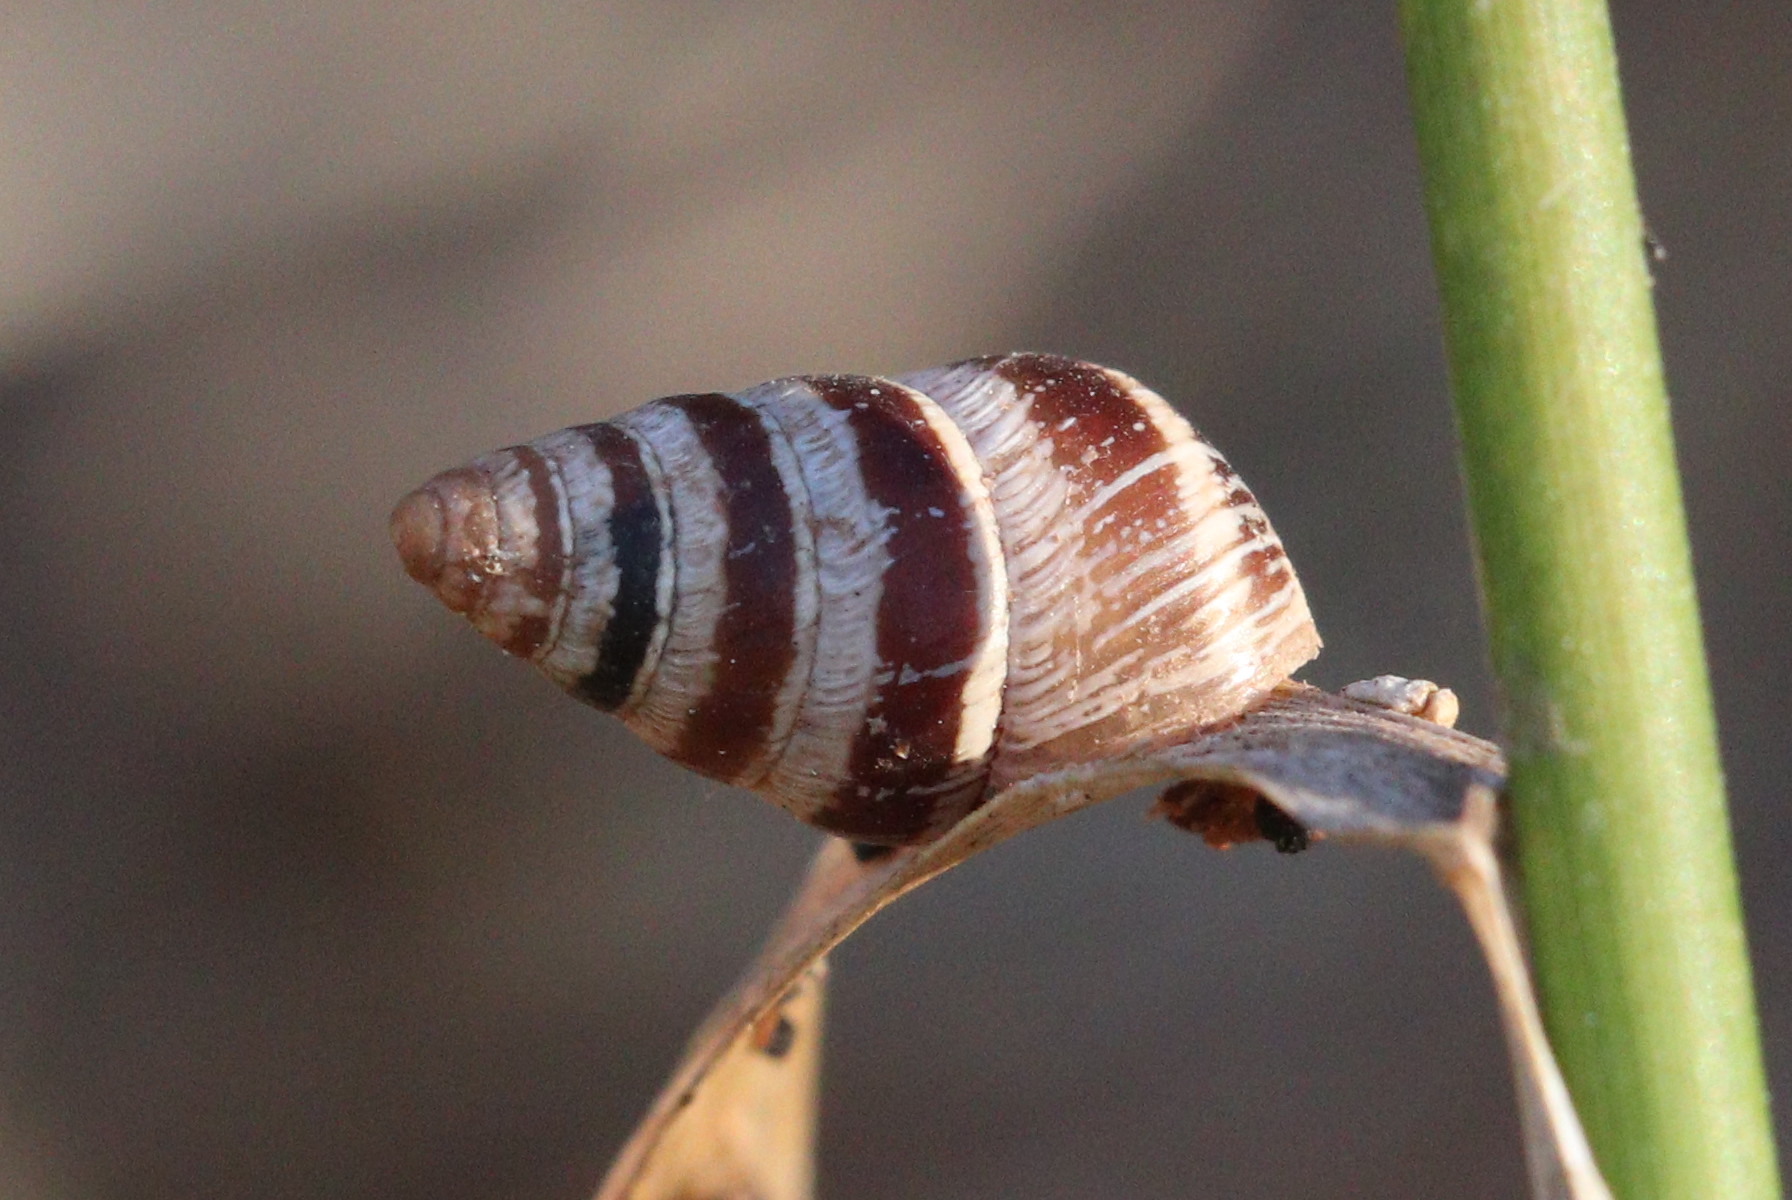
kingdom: Animalia
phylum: Mollusca
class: Gastropoda
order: Stylommatophora
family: Geomitridae
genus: Cochlicella
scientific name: Cochlicella barbara
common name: Potbellied helicellid
